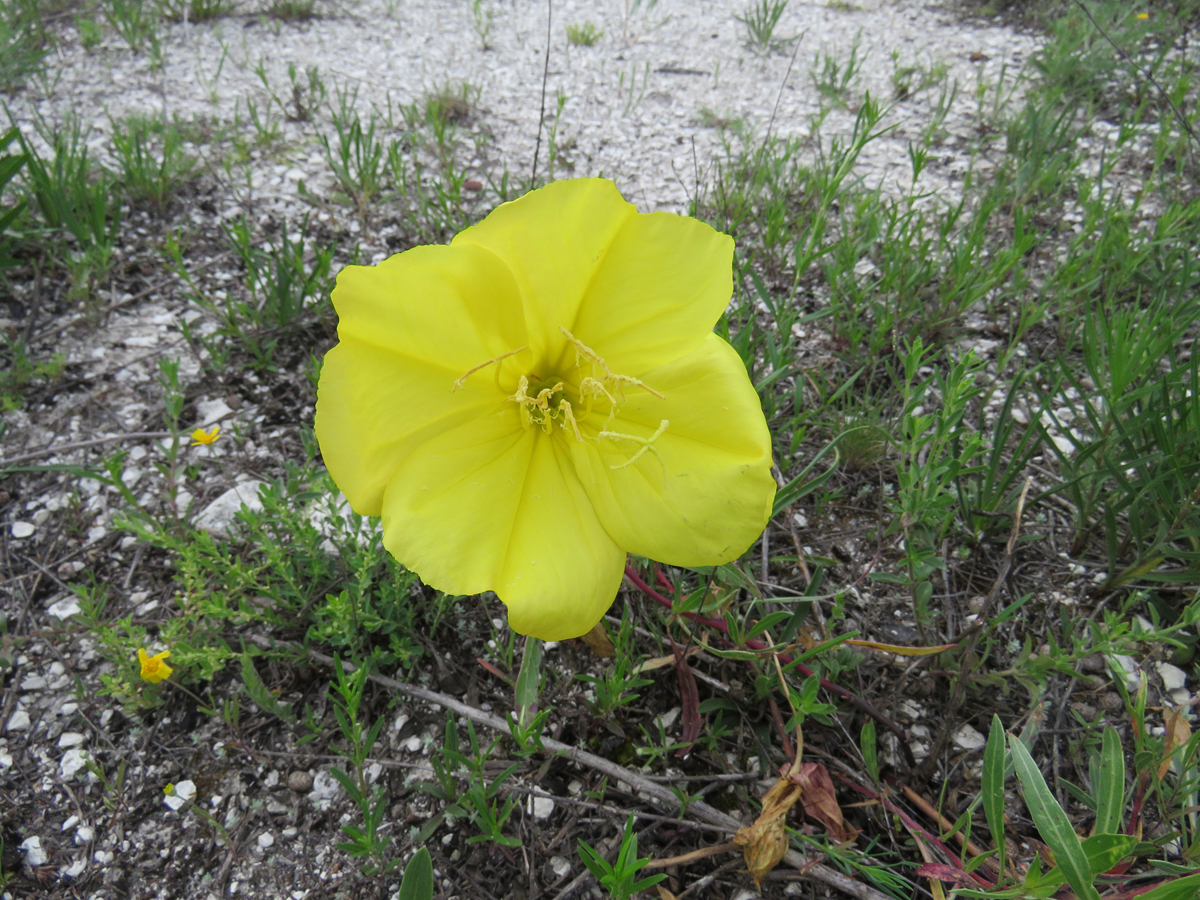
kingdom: Plantae
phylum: Tracheophyta
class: Magnoliopsida
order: Myrtales
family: Onagraceae
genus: Oenothera
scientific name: Oenothera macrocarpa
